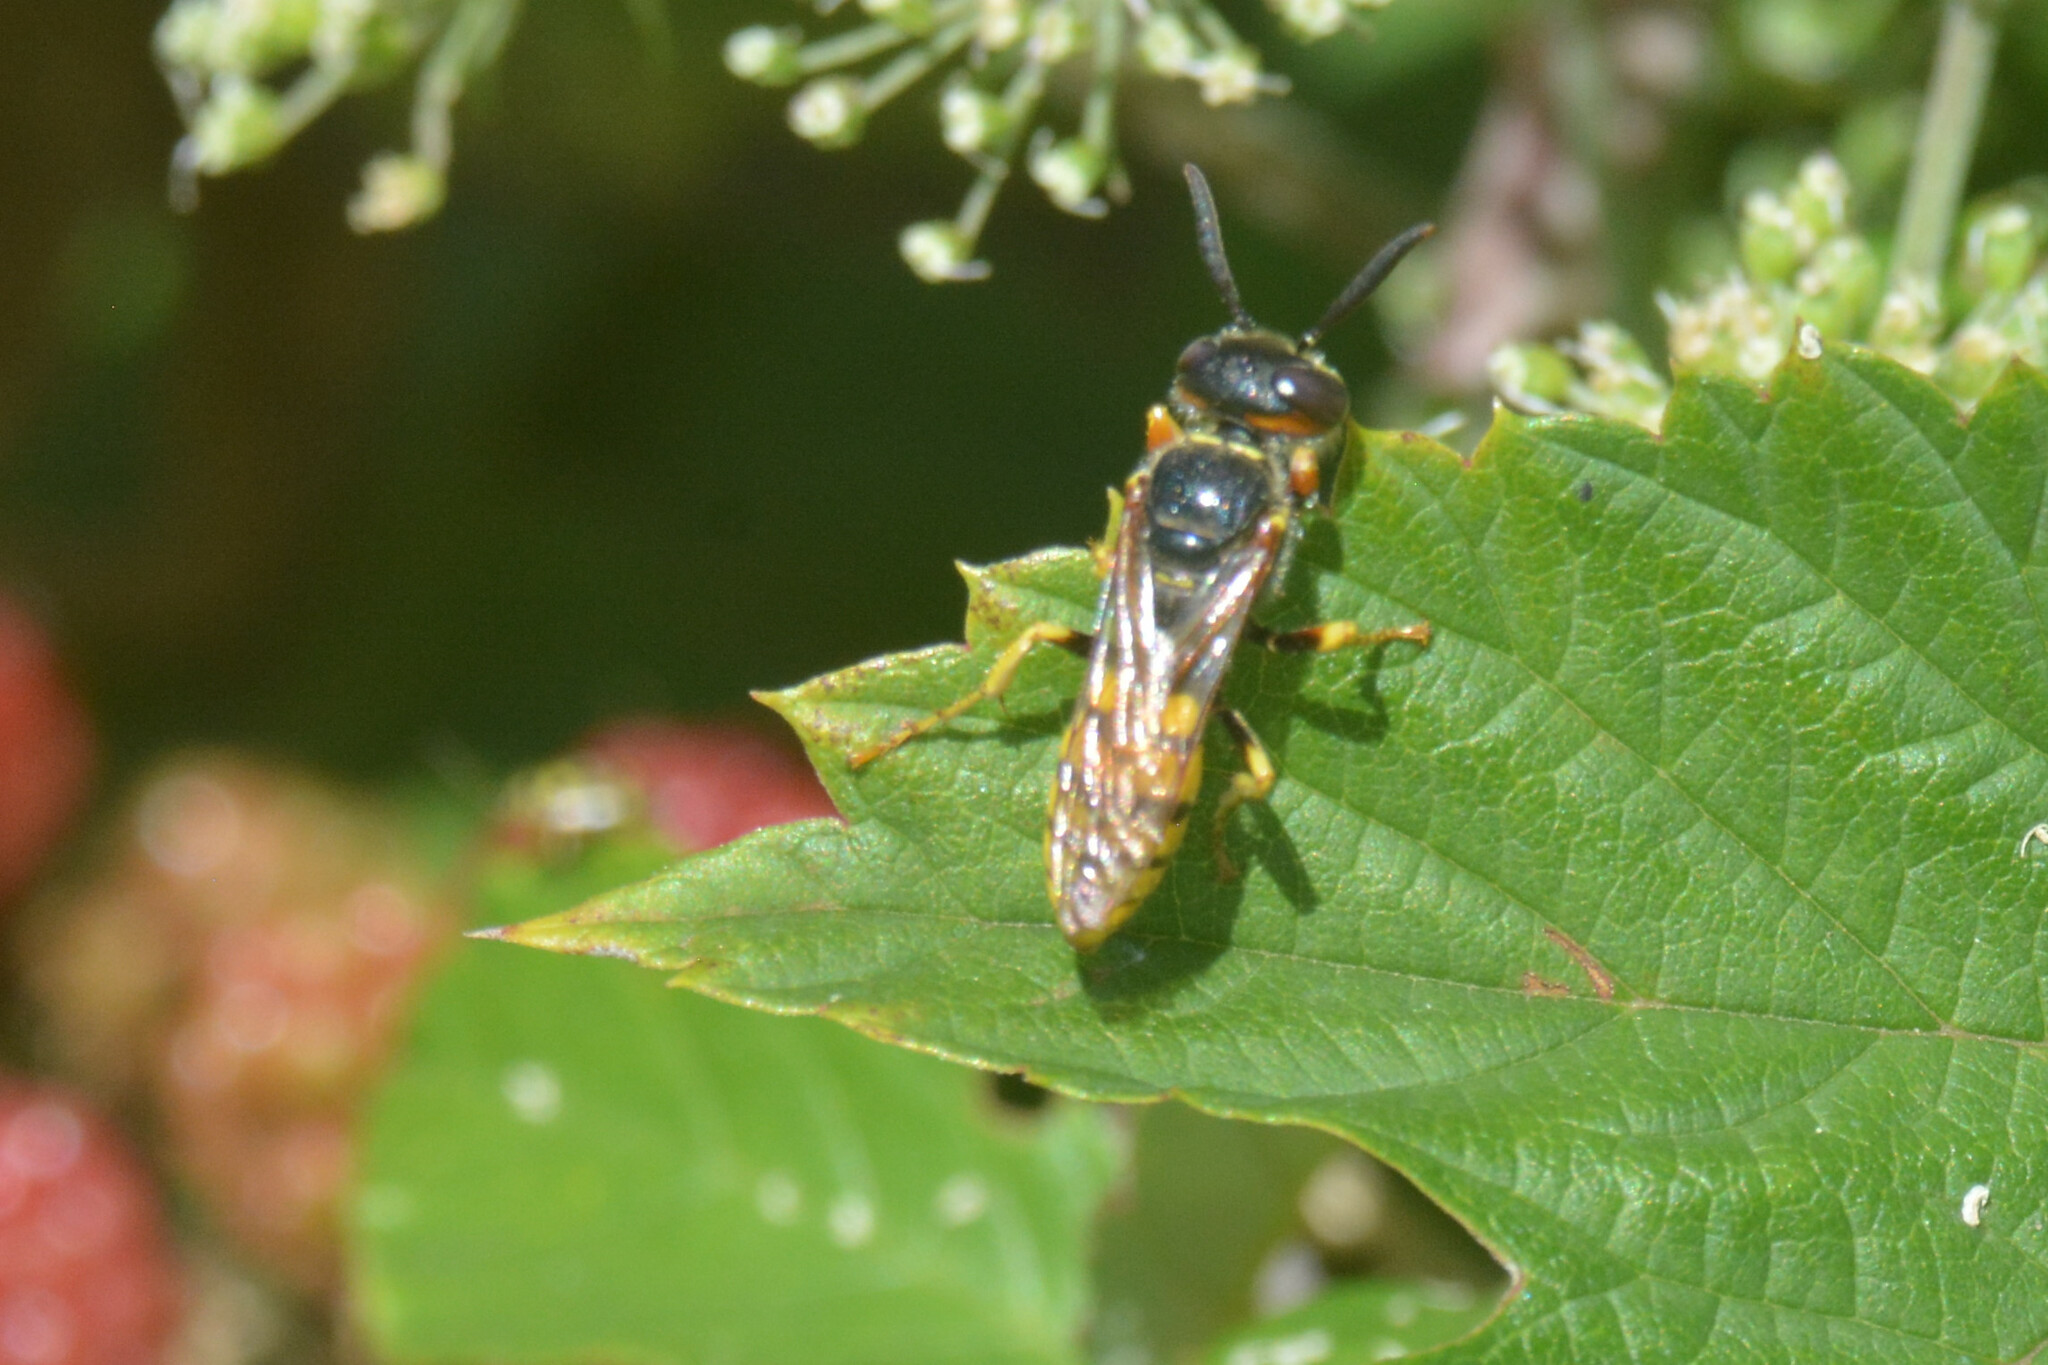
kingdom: Animalia
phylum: Arthropoda
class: Insecta
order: Hymenoptera
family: Crabronidae
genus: Philanthus
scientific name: Philanthus triangulum
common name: Bee wolf
